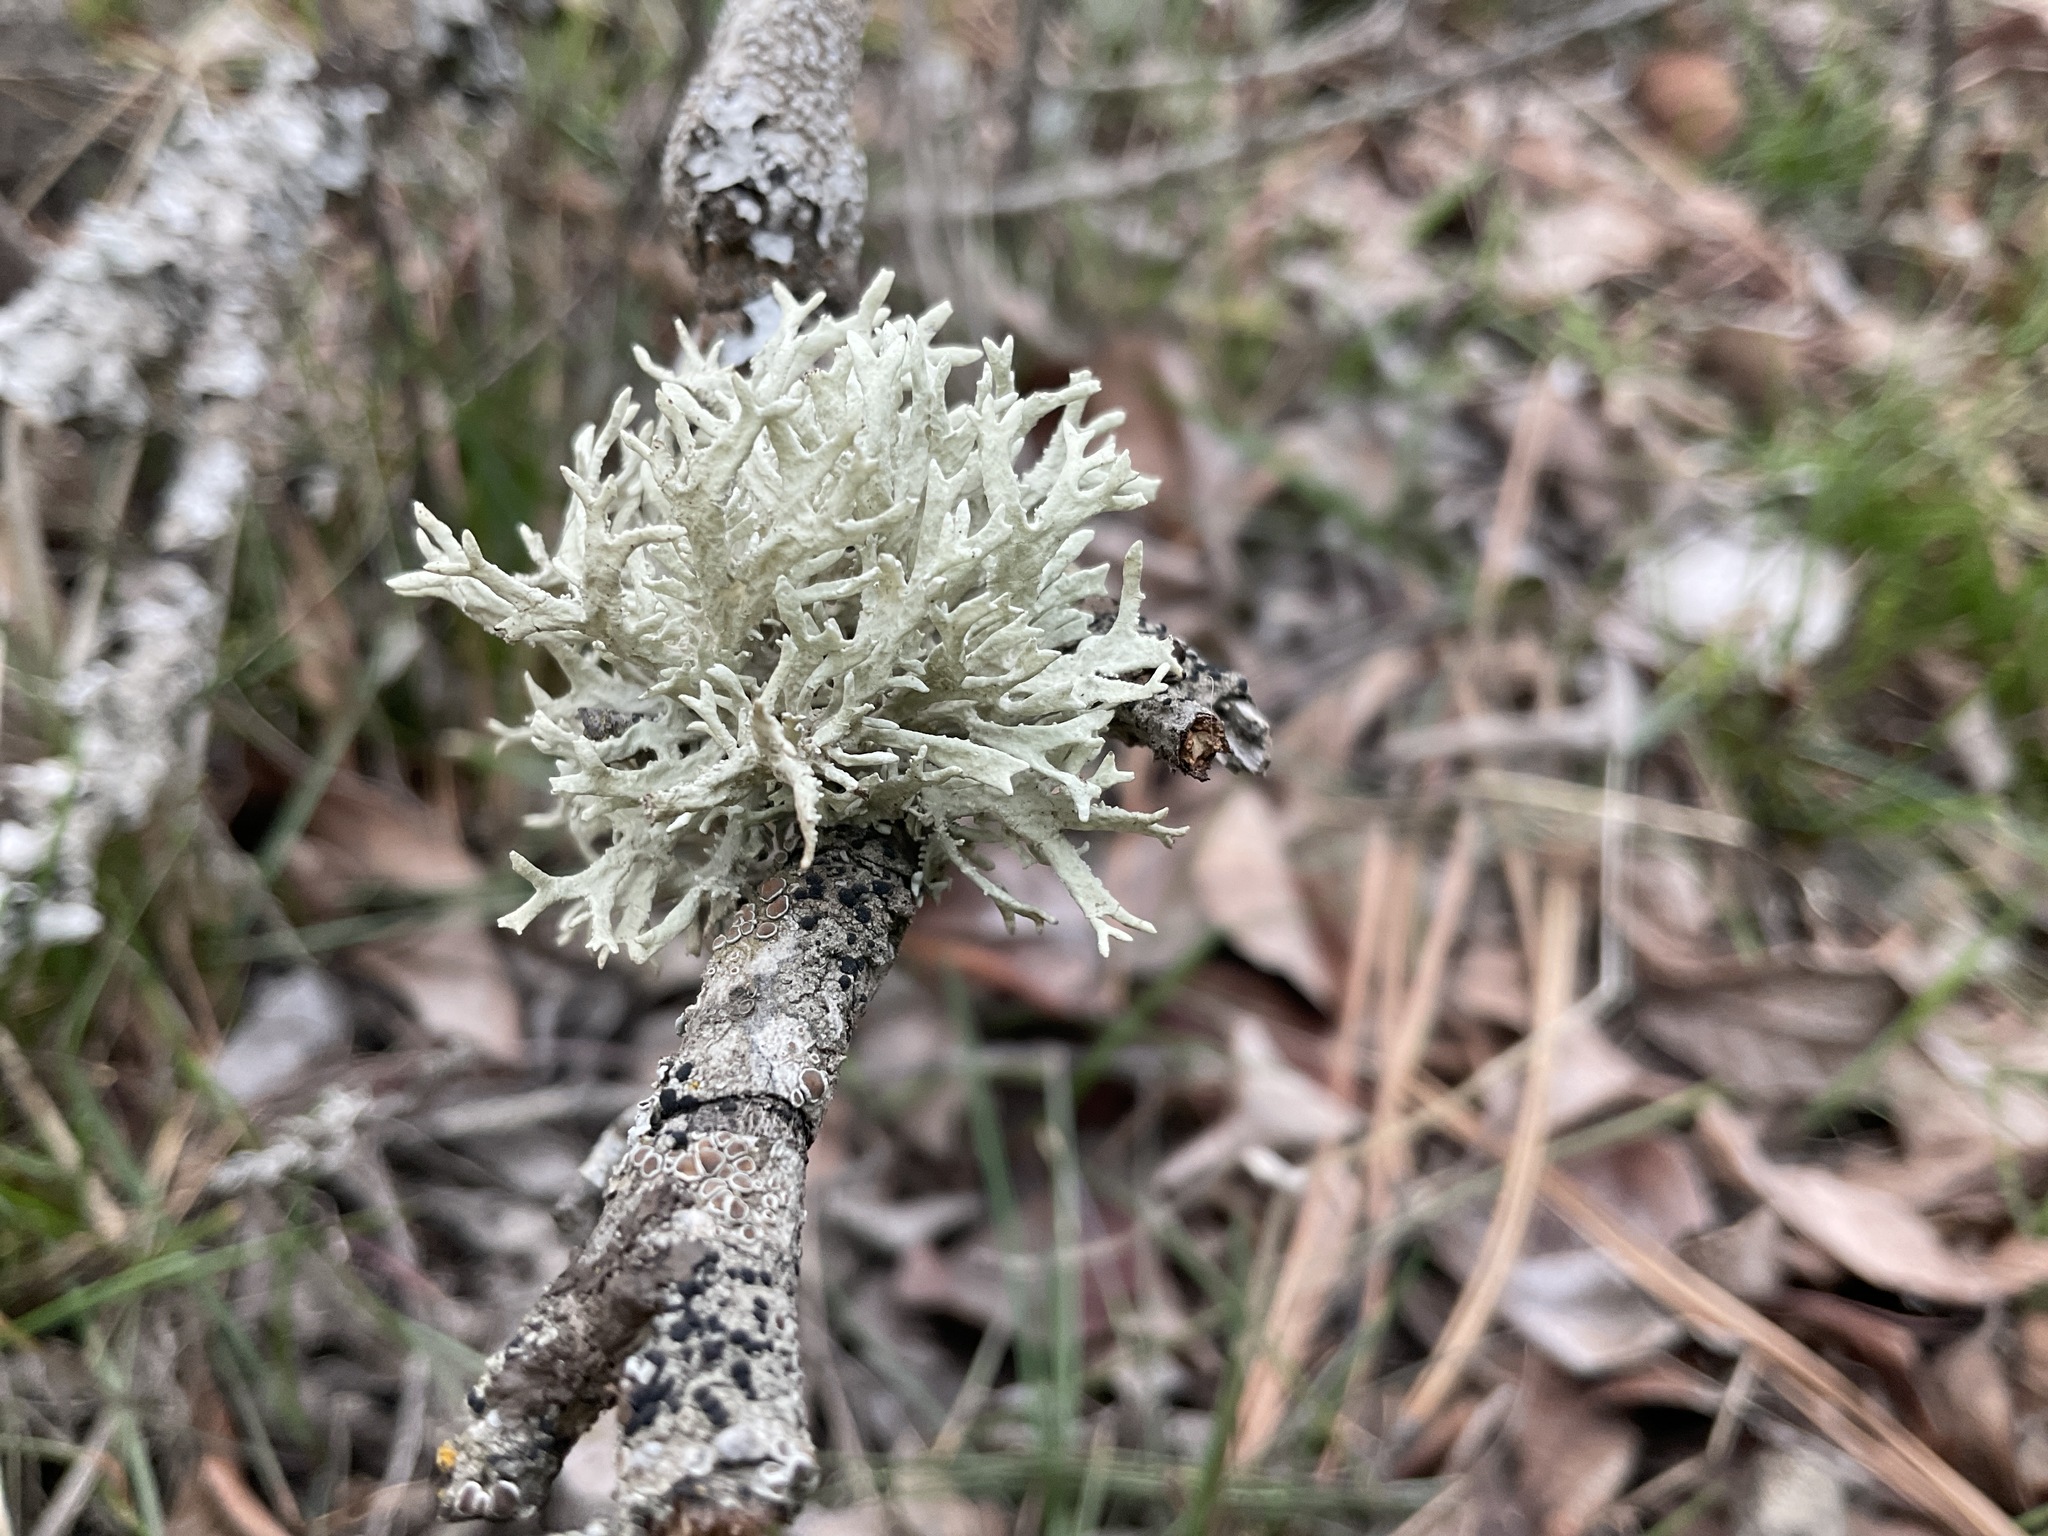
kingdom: Fungi
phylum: Ascomycota
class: Lecanoromycetes
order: Lecanorales
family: Parmeliaceae
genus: Evernia
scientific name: Evernia prunastri
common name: Oak moss
